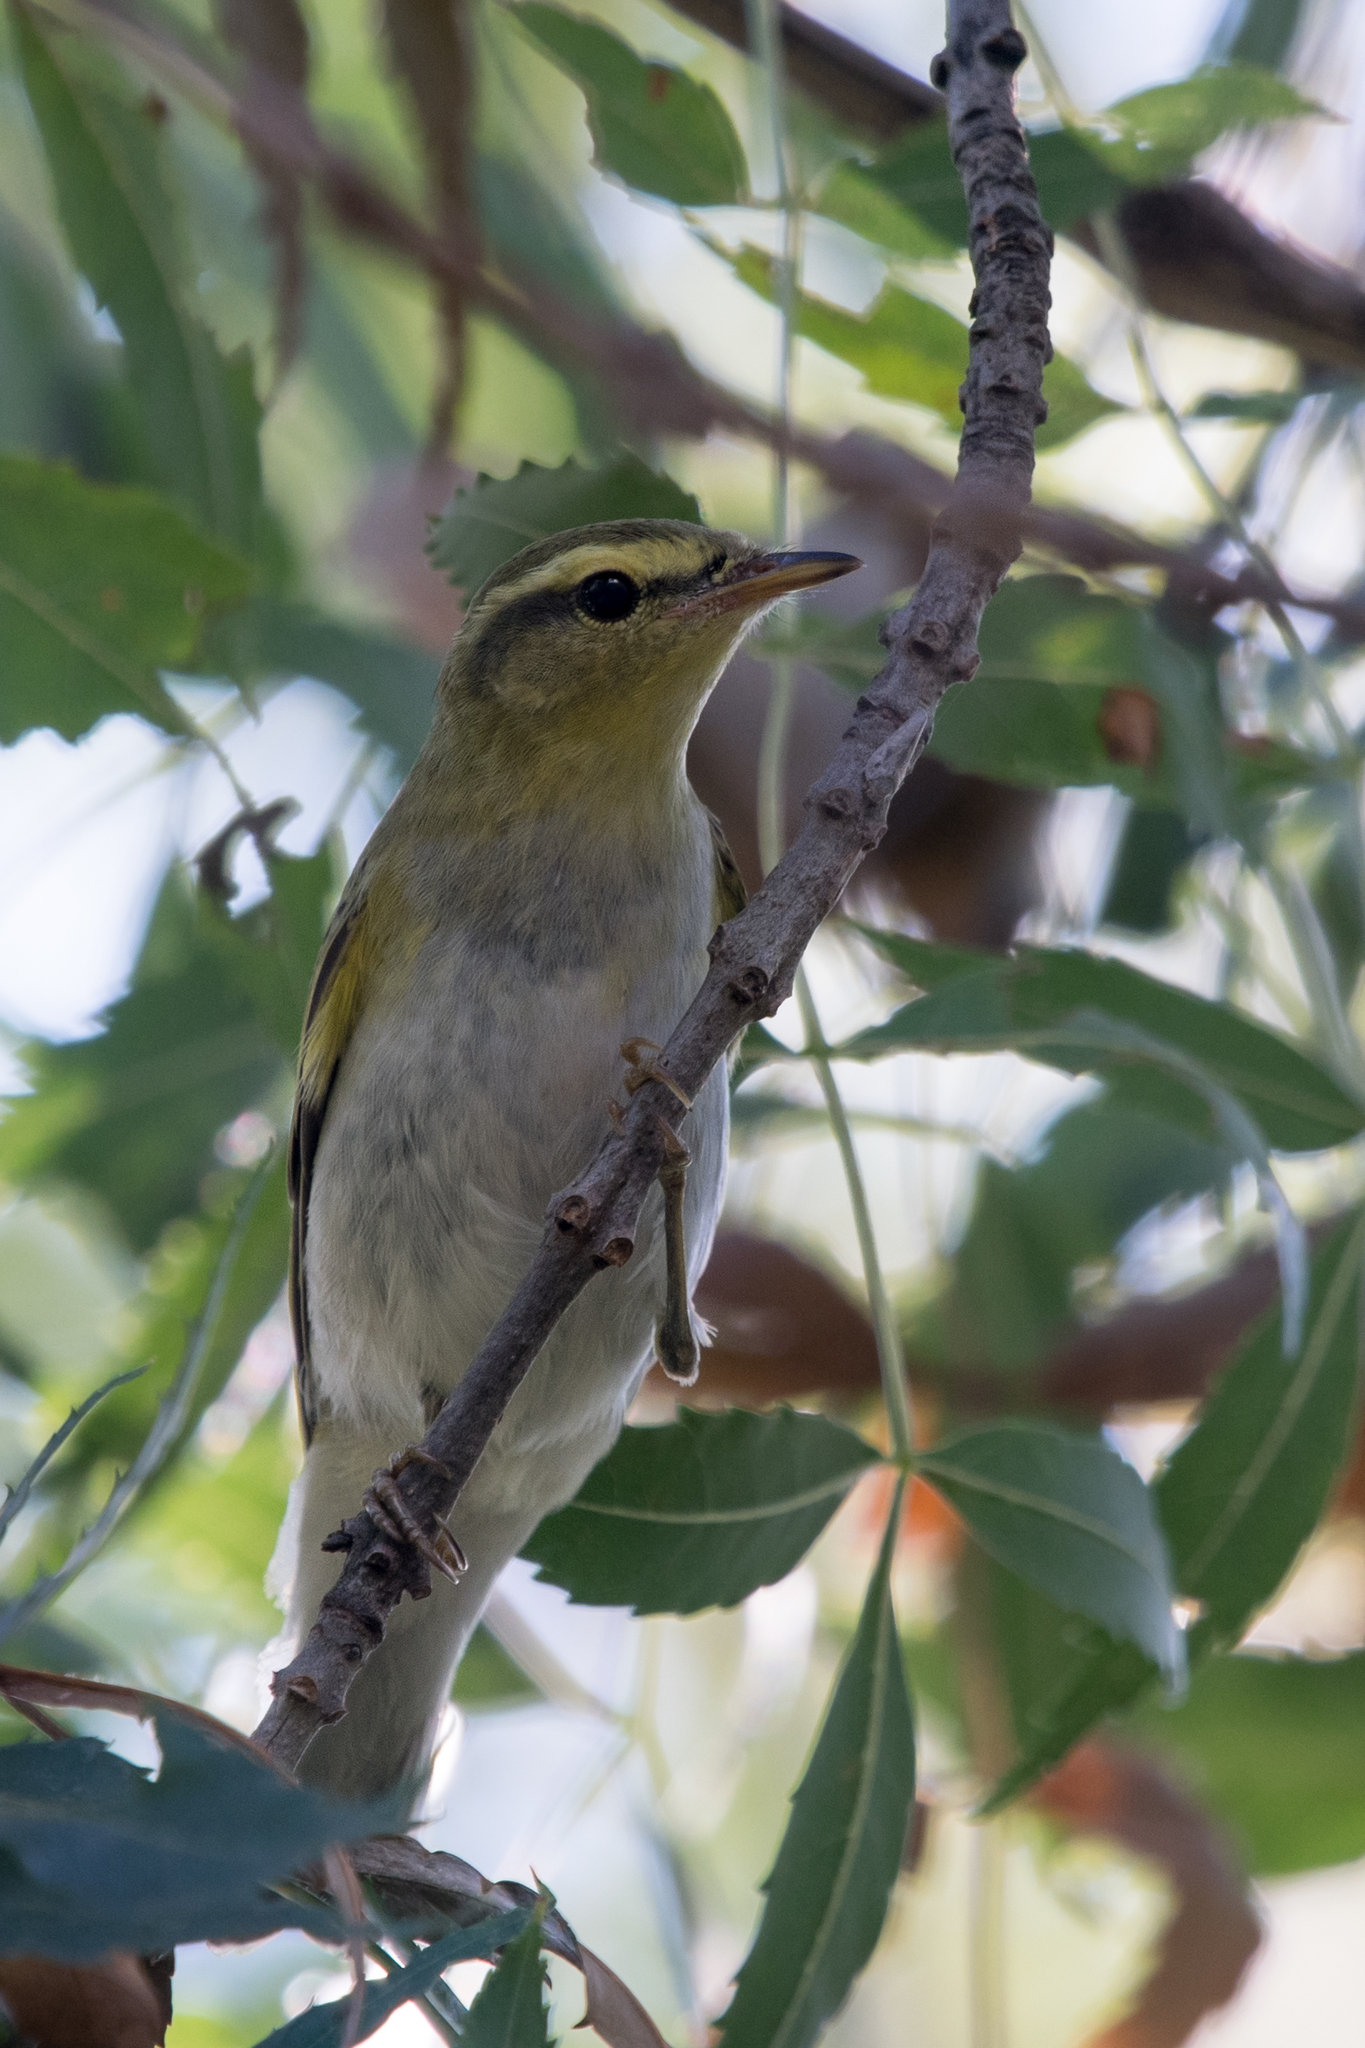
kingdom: Animalia
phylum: Chordata
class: Aves
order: Passeriformes
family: Phylloscopidae
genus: Phylloscopus
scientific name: Phylloscopus sibillatrix
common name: Wood warbler
